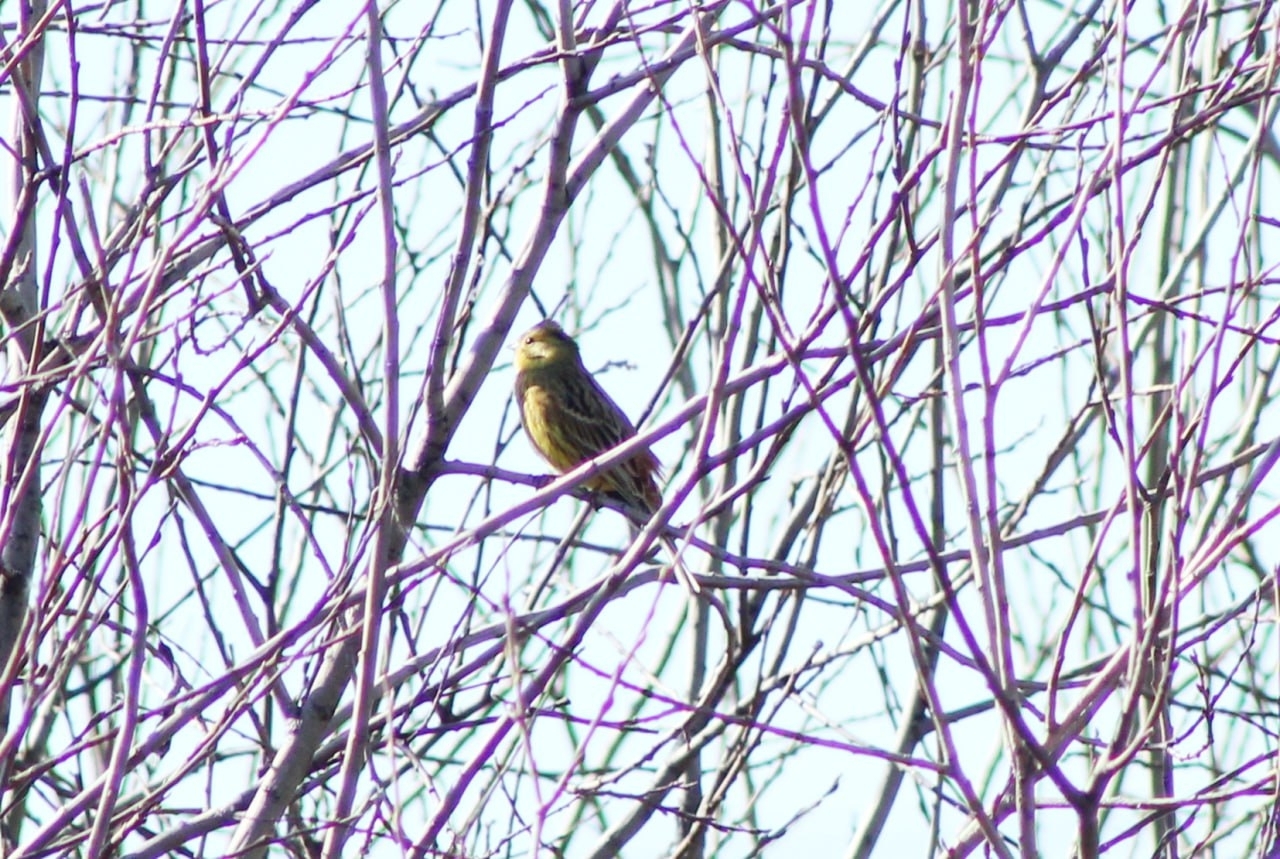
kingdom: Animalia
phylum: Chordata
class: Aves
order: Passeriformes
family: Emberizidae
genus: Emberiza
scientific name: Emberiza citrinella
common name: Yellowhammer
